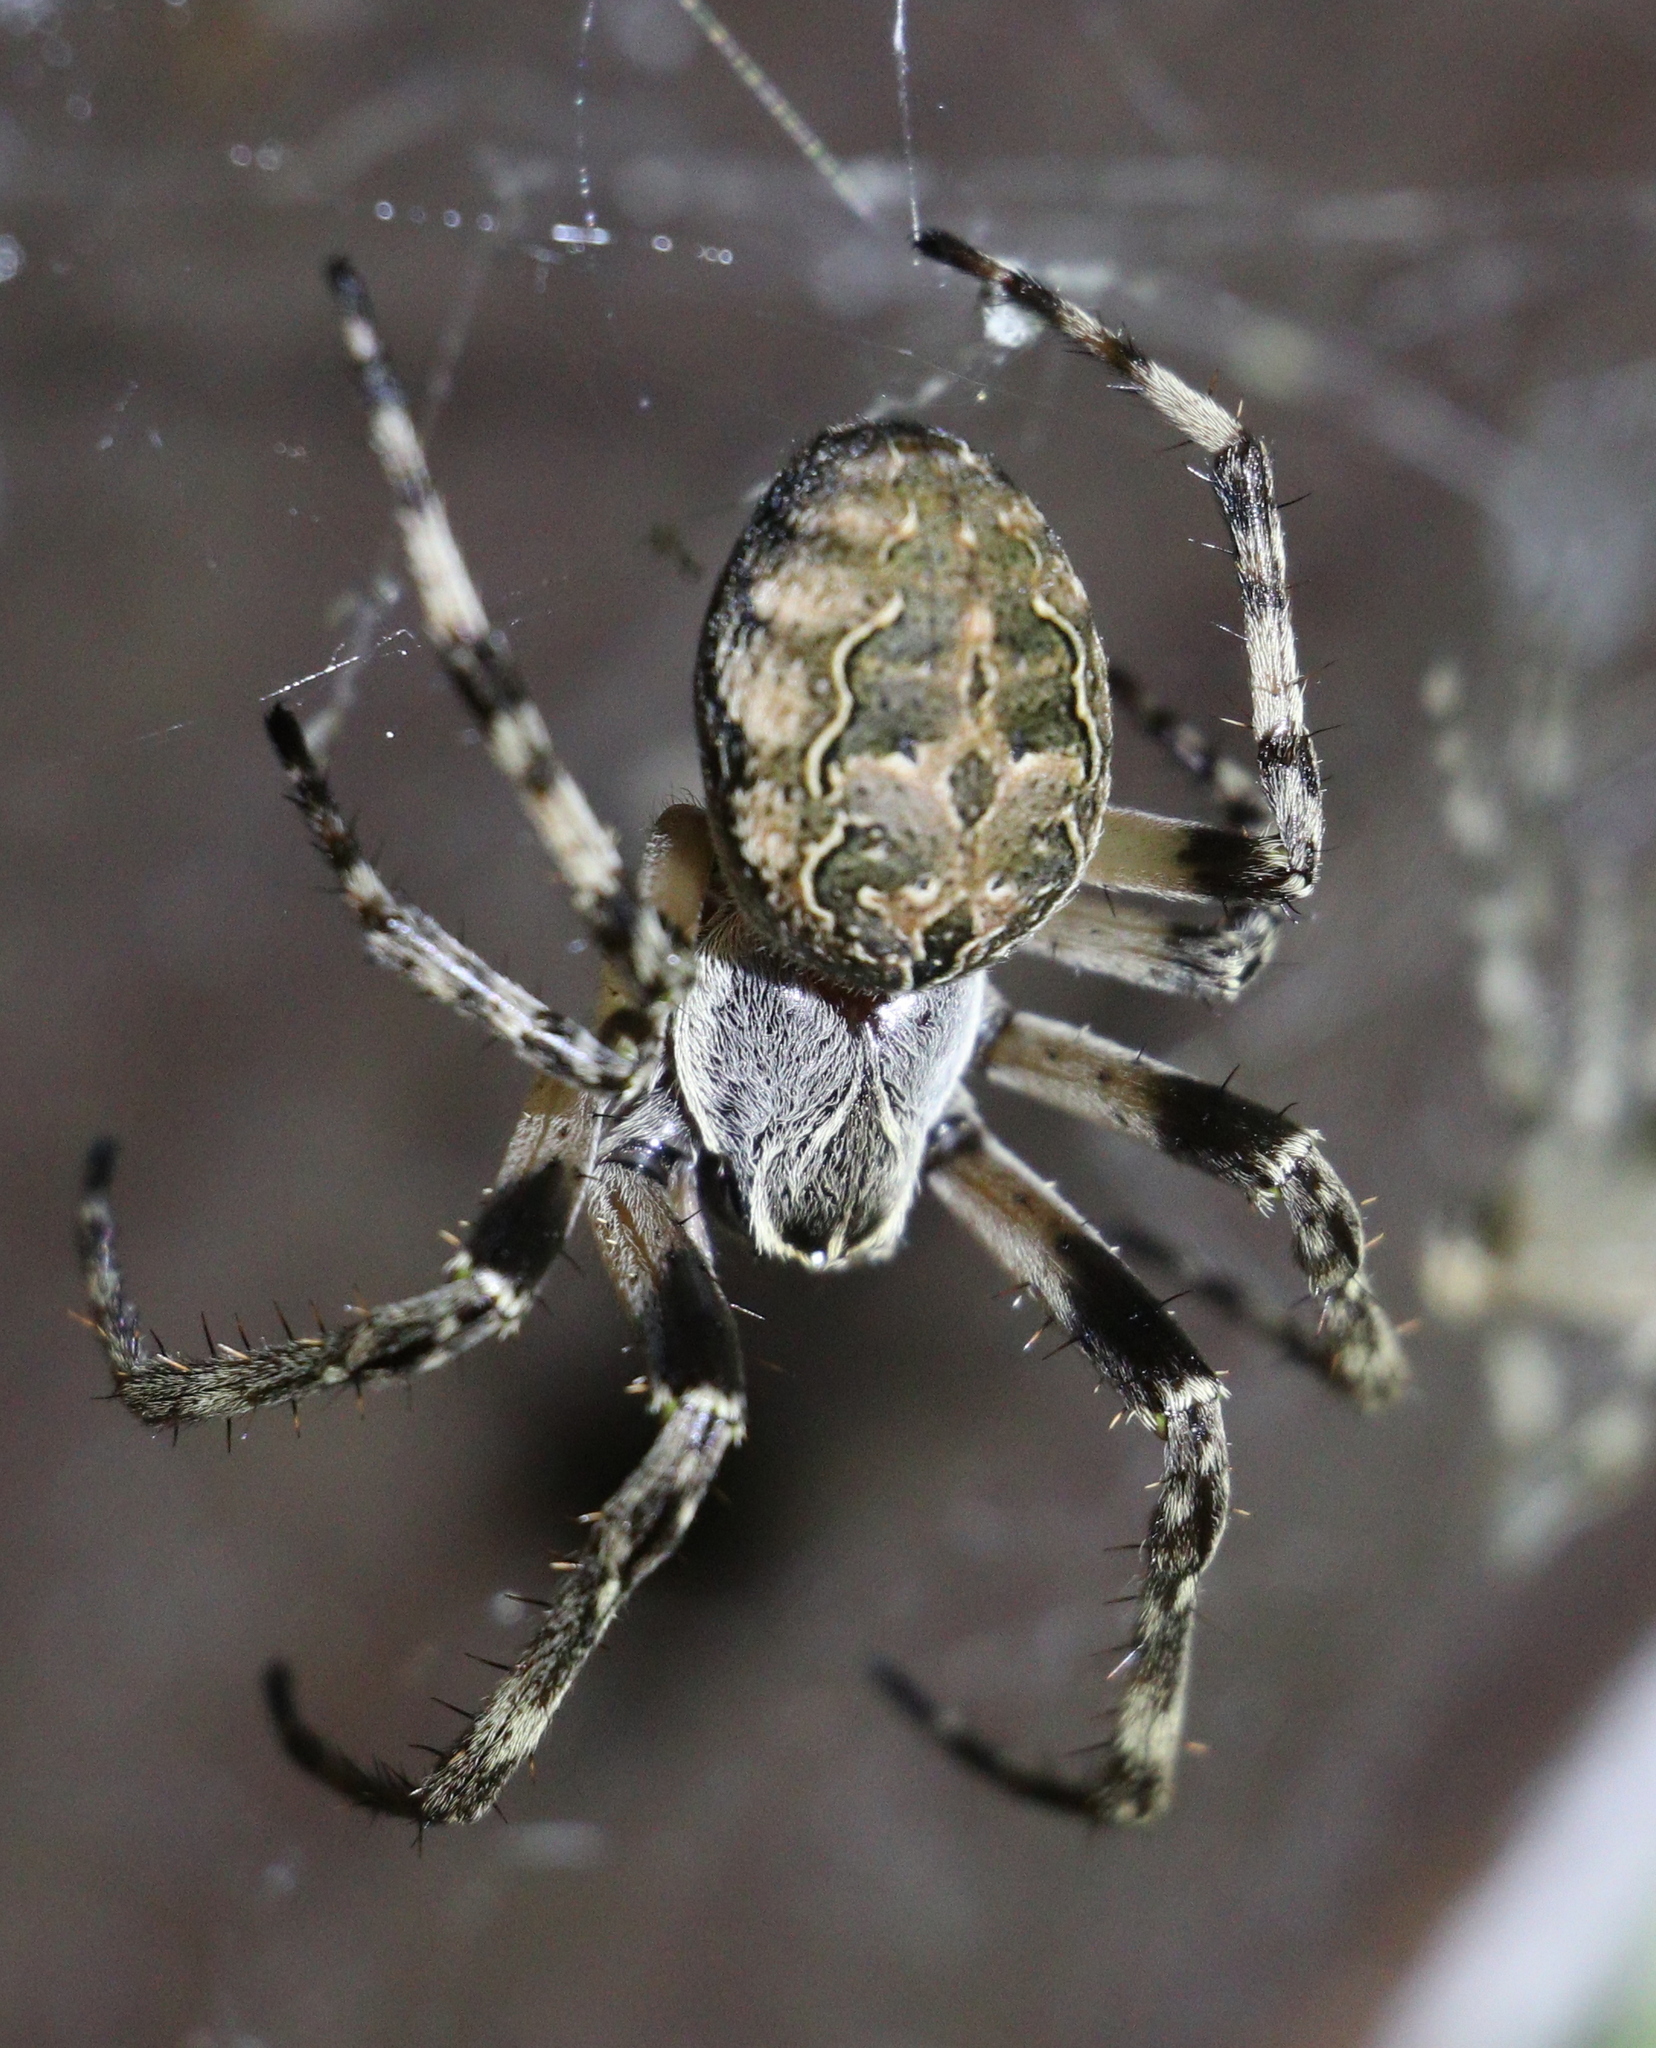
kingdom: Animalia
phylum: Arthropoda
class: Arachnida
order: Araneae
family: Araneidae
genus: Larinioides
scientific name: Larinioides sclopetarius
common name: Bridge orbweaver
